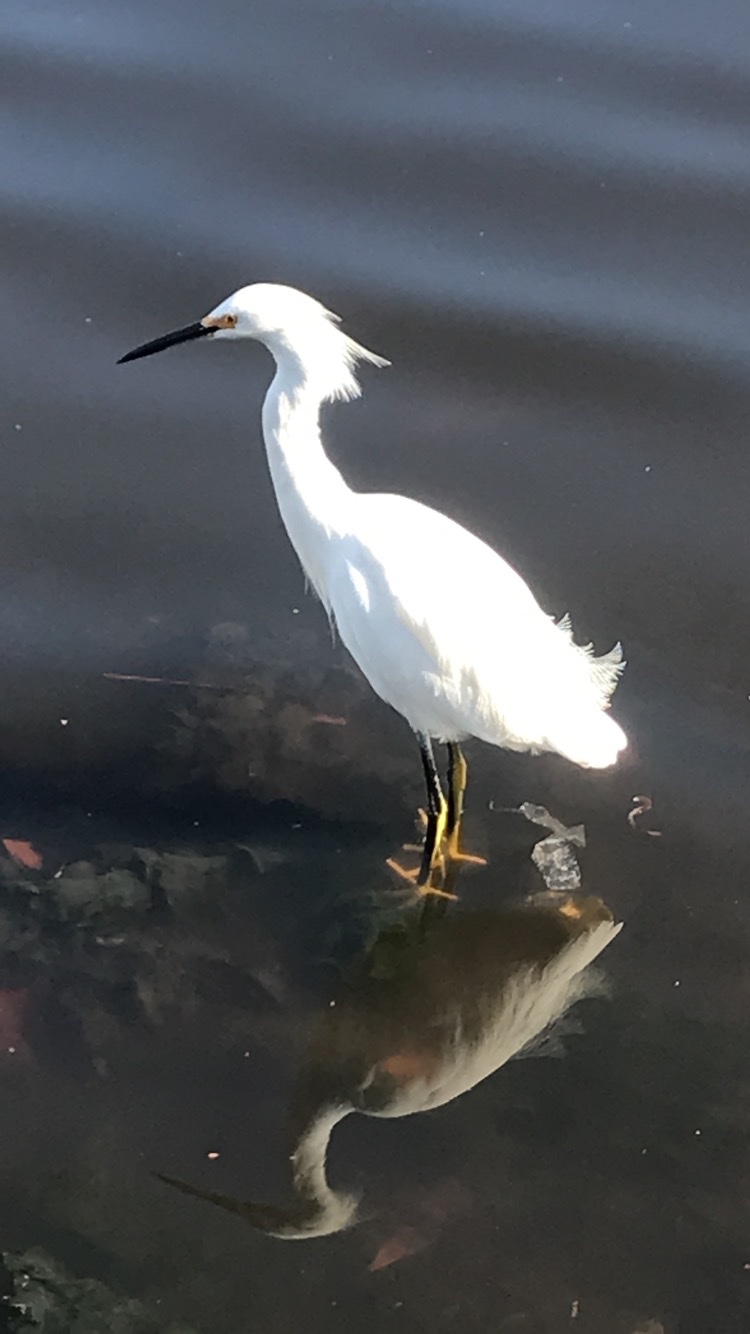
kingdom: Animalia
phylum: Chordata
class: Aves
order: Pelecaniformes
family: Ardeidae
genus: Egretta
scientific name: Egretta thula
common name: Snowy egret
